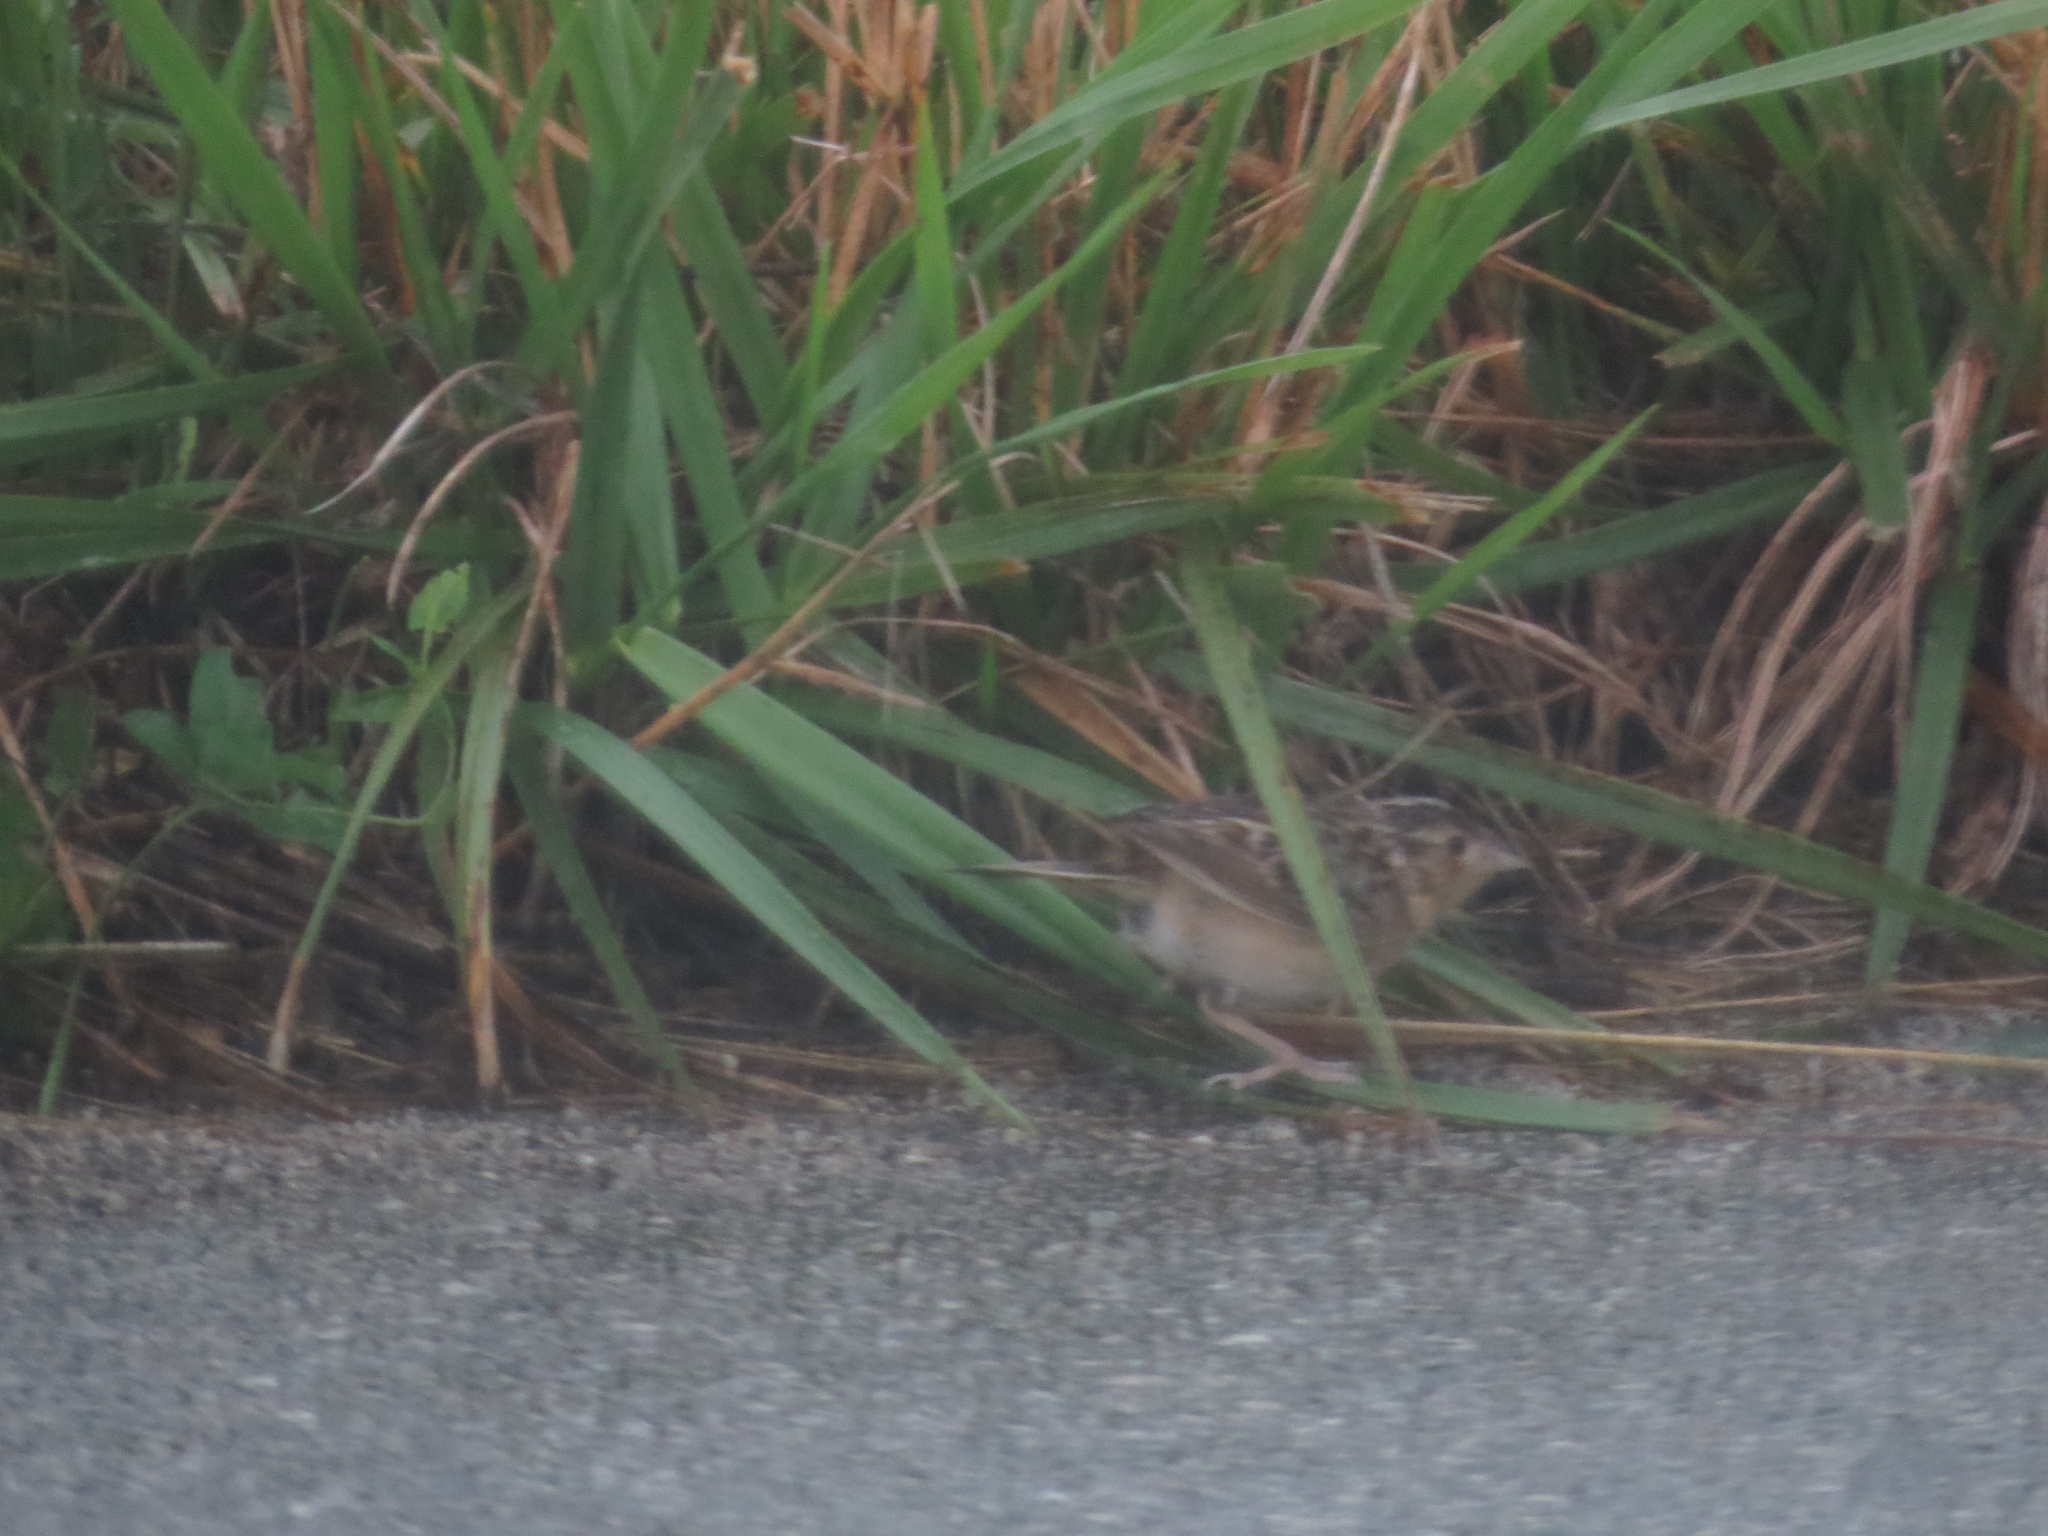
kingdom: Animalia
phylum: Chordata
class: Aves
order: Passeriformes
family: Passerellidae
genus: Ammodramus
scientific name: Ammodramus savannarum
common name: Grasshopper sparrow
